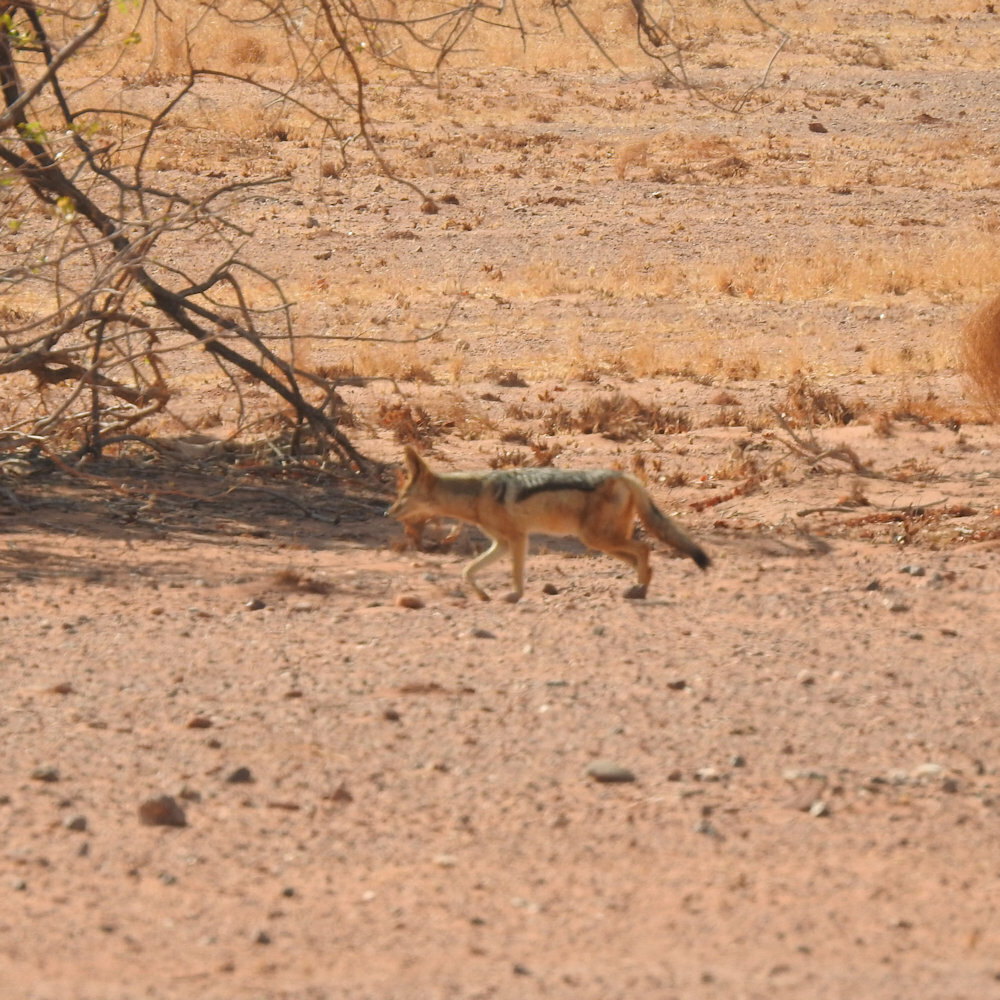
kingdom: Animalia
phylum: Chordata
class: Mammalia
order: Carnivora
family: Canidae
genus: Lupulella
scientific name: Lupulella
